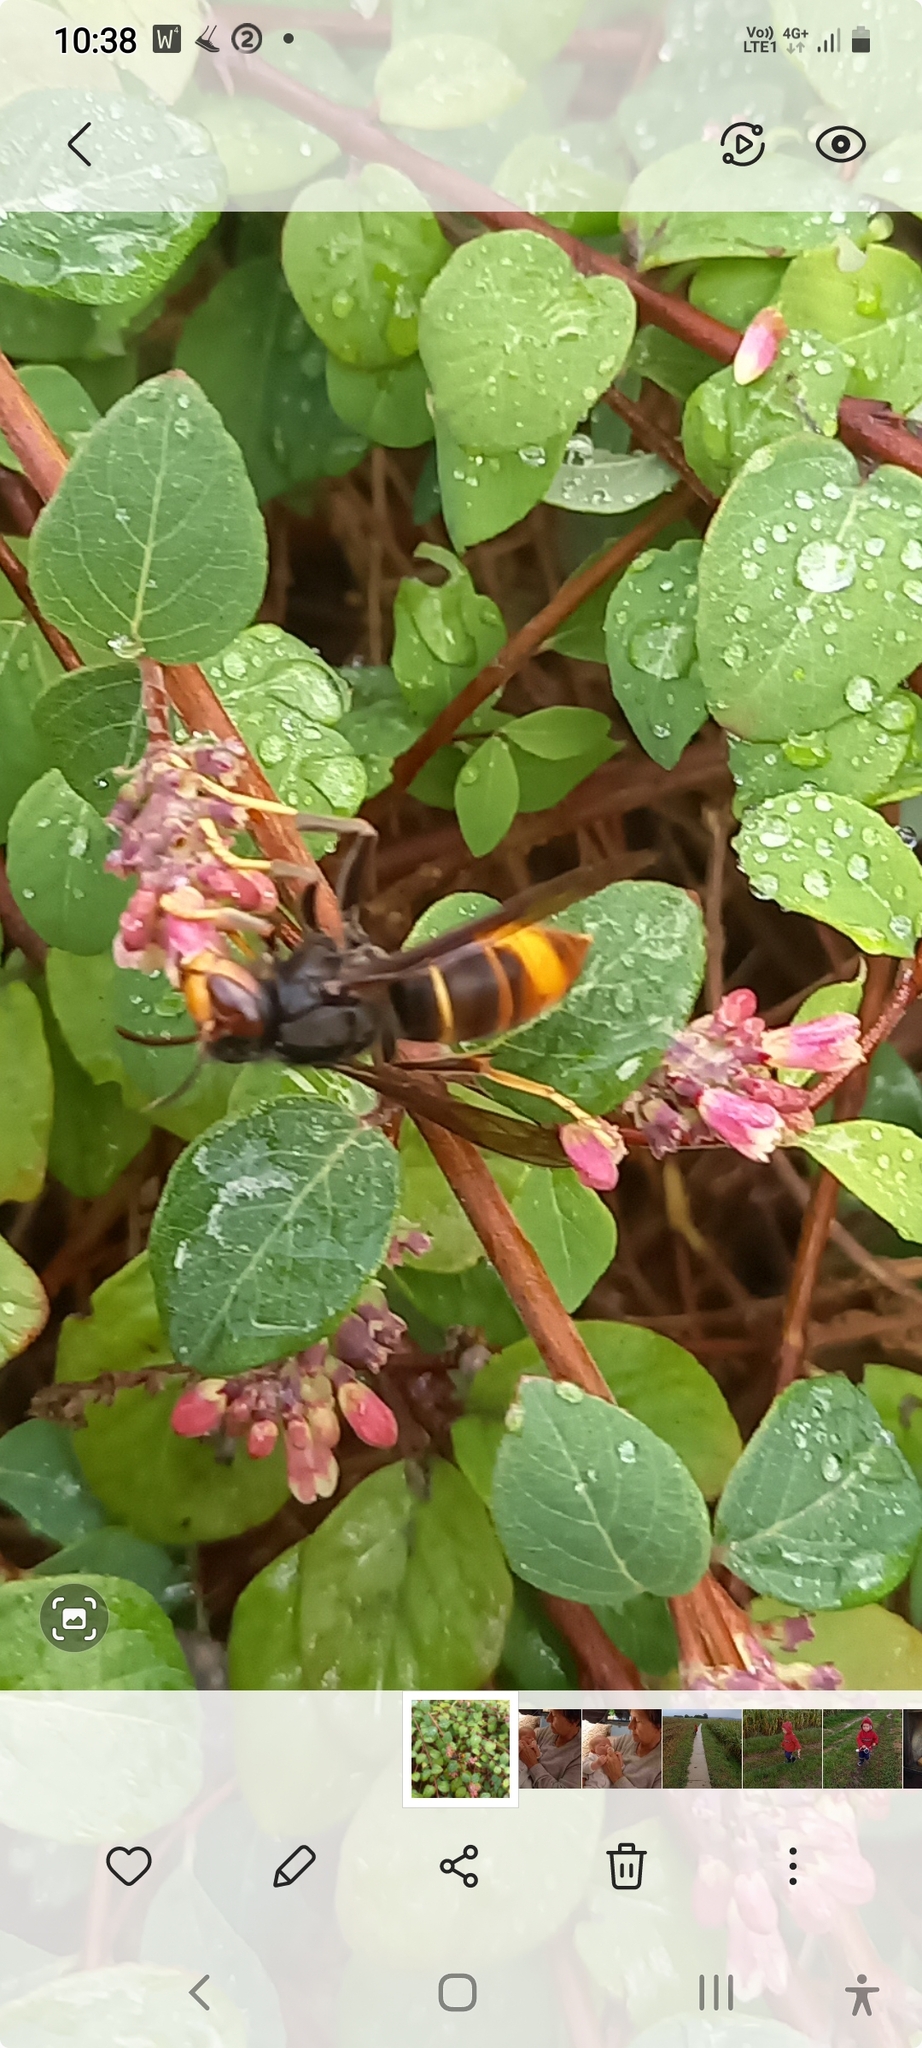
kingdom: Animalia
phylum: Arthropoda
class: Insecta
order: Hymenoptera
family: Vespidae
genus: Vespa
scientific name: Vespa velutina
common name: Asian hornet
